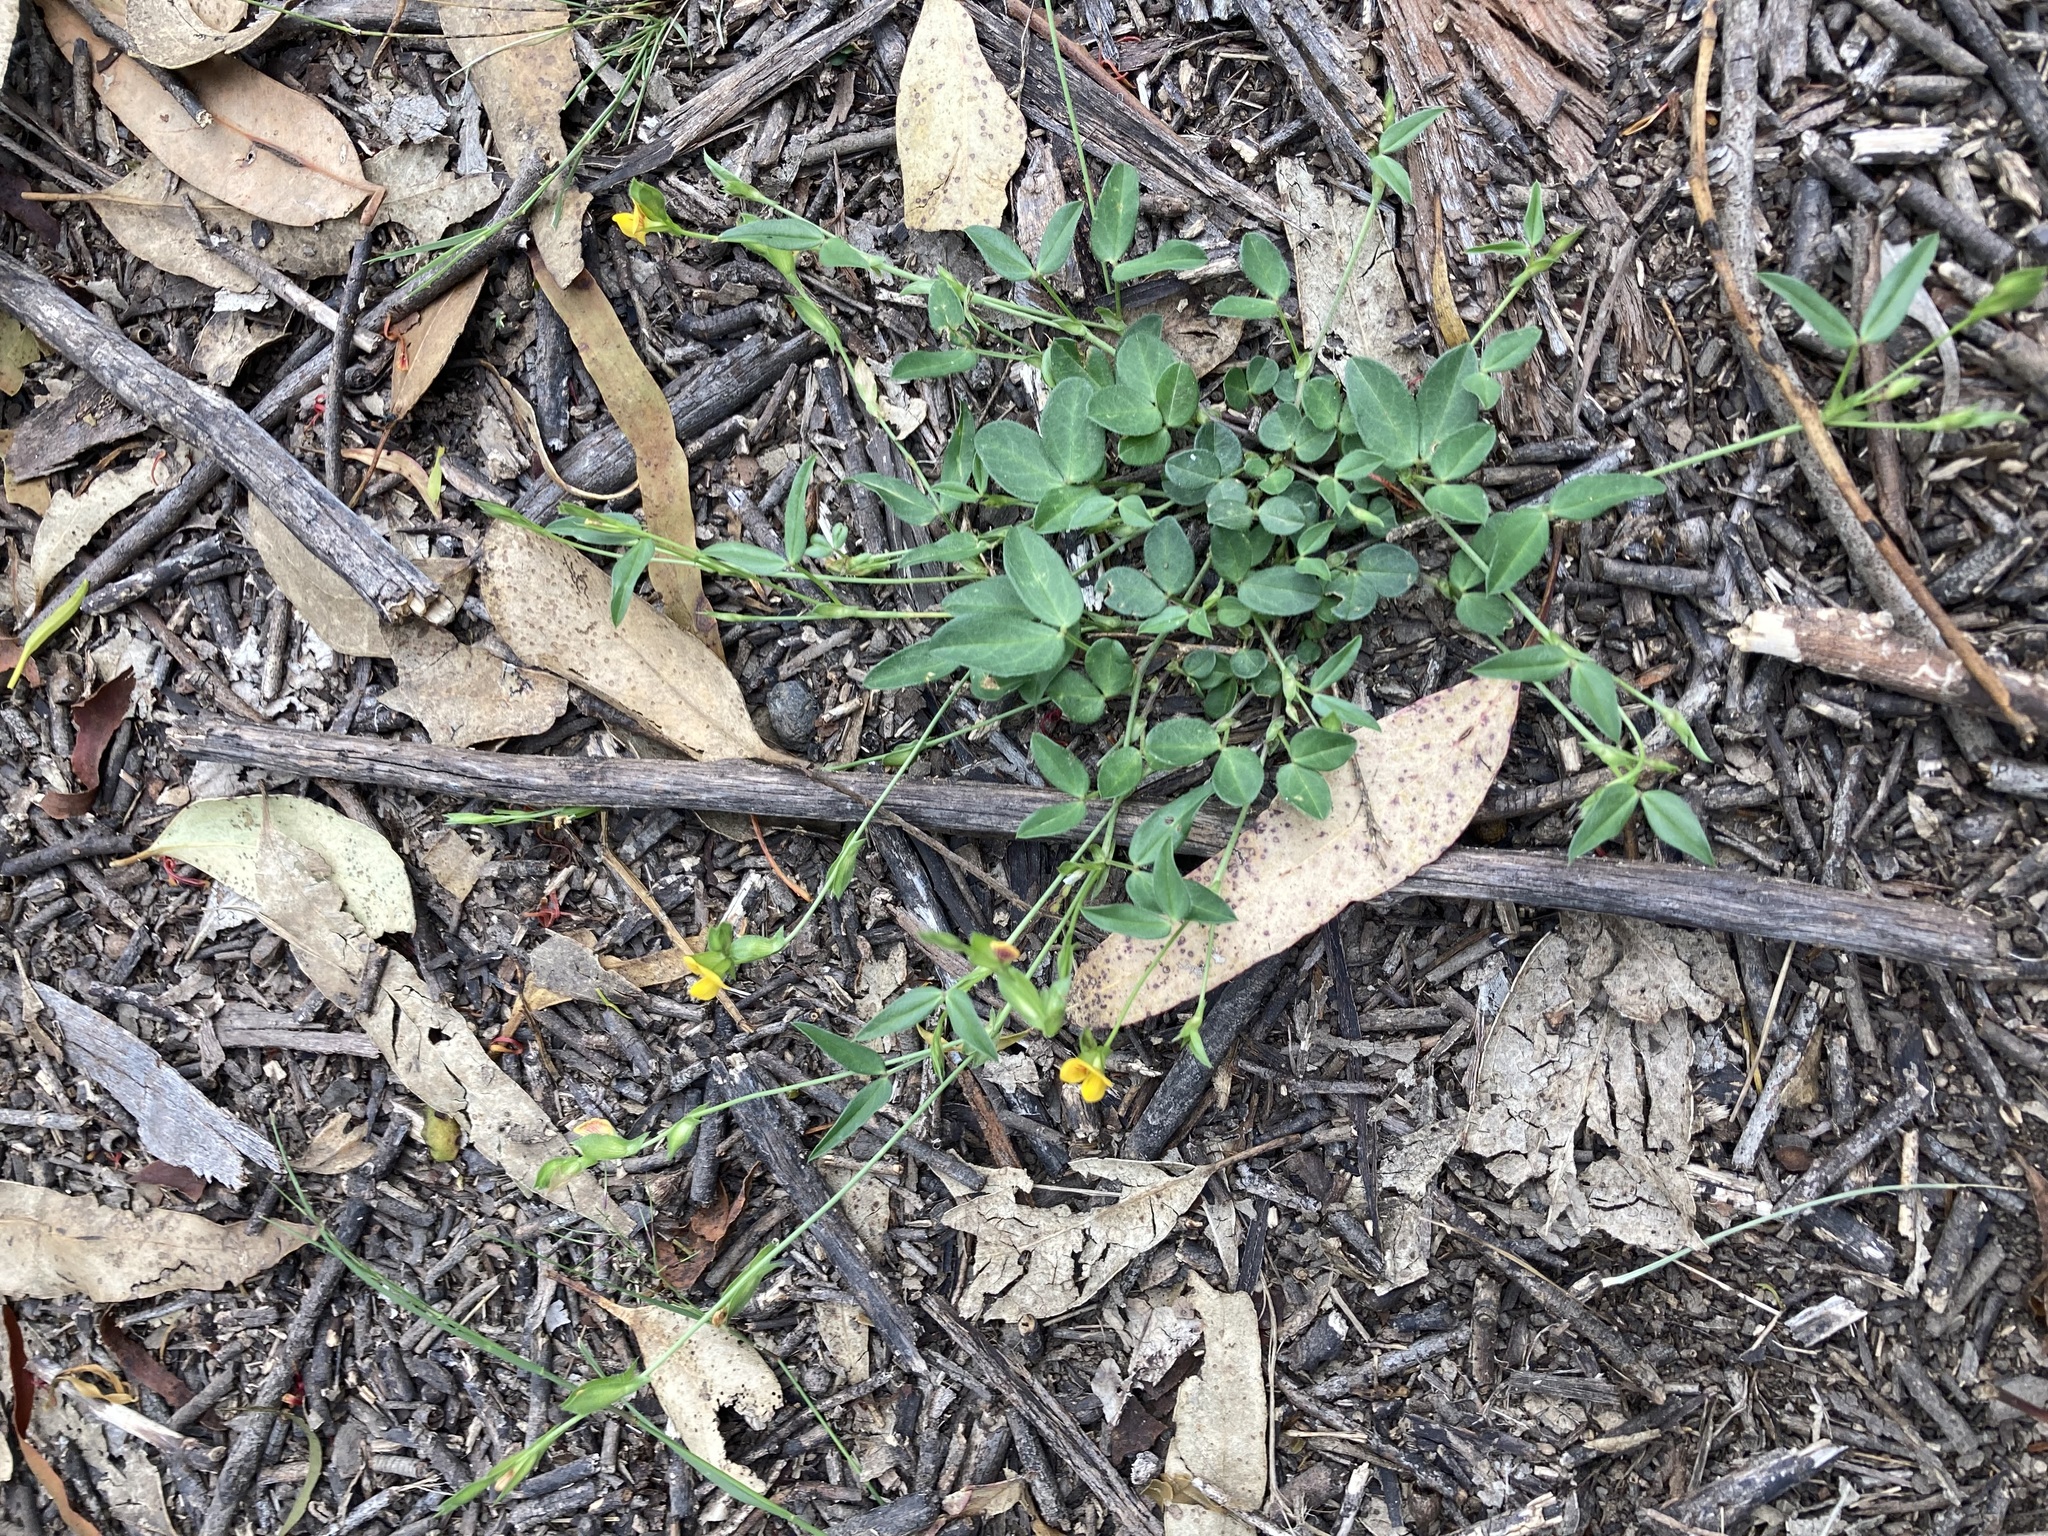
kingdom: Plantae
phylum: Tracheophyta
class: Magnoliopsida
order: Fabales
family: Fabaceae
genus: Zornia
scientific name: Zornia dyctiocarpa
